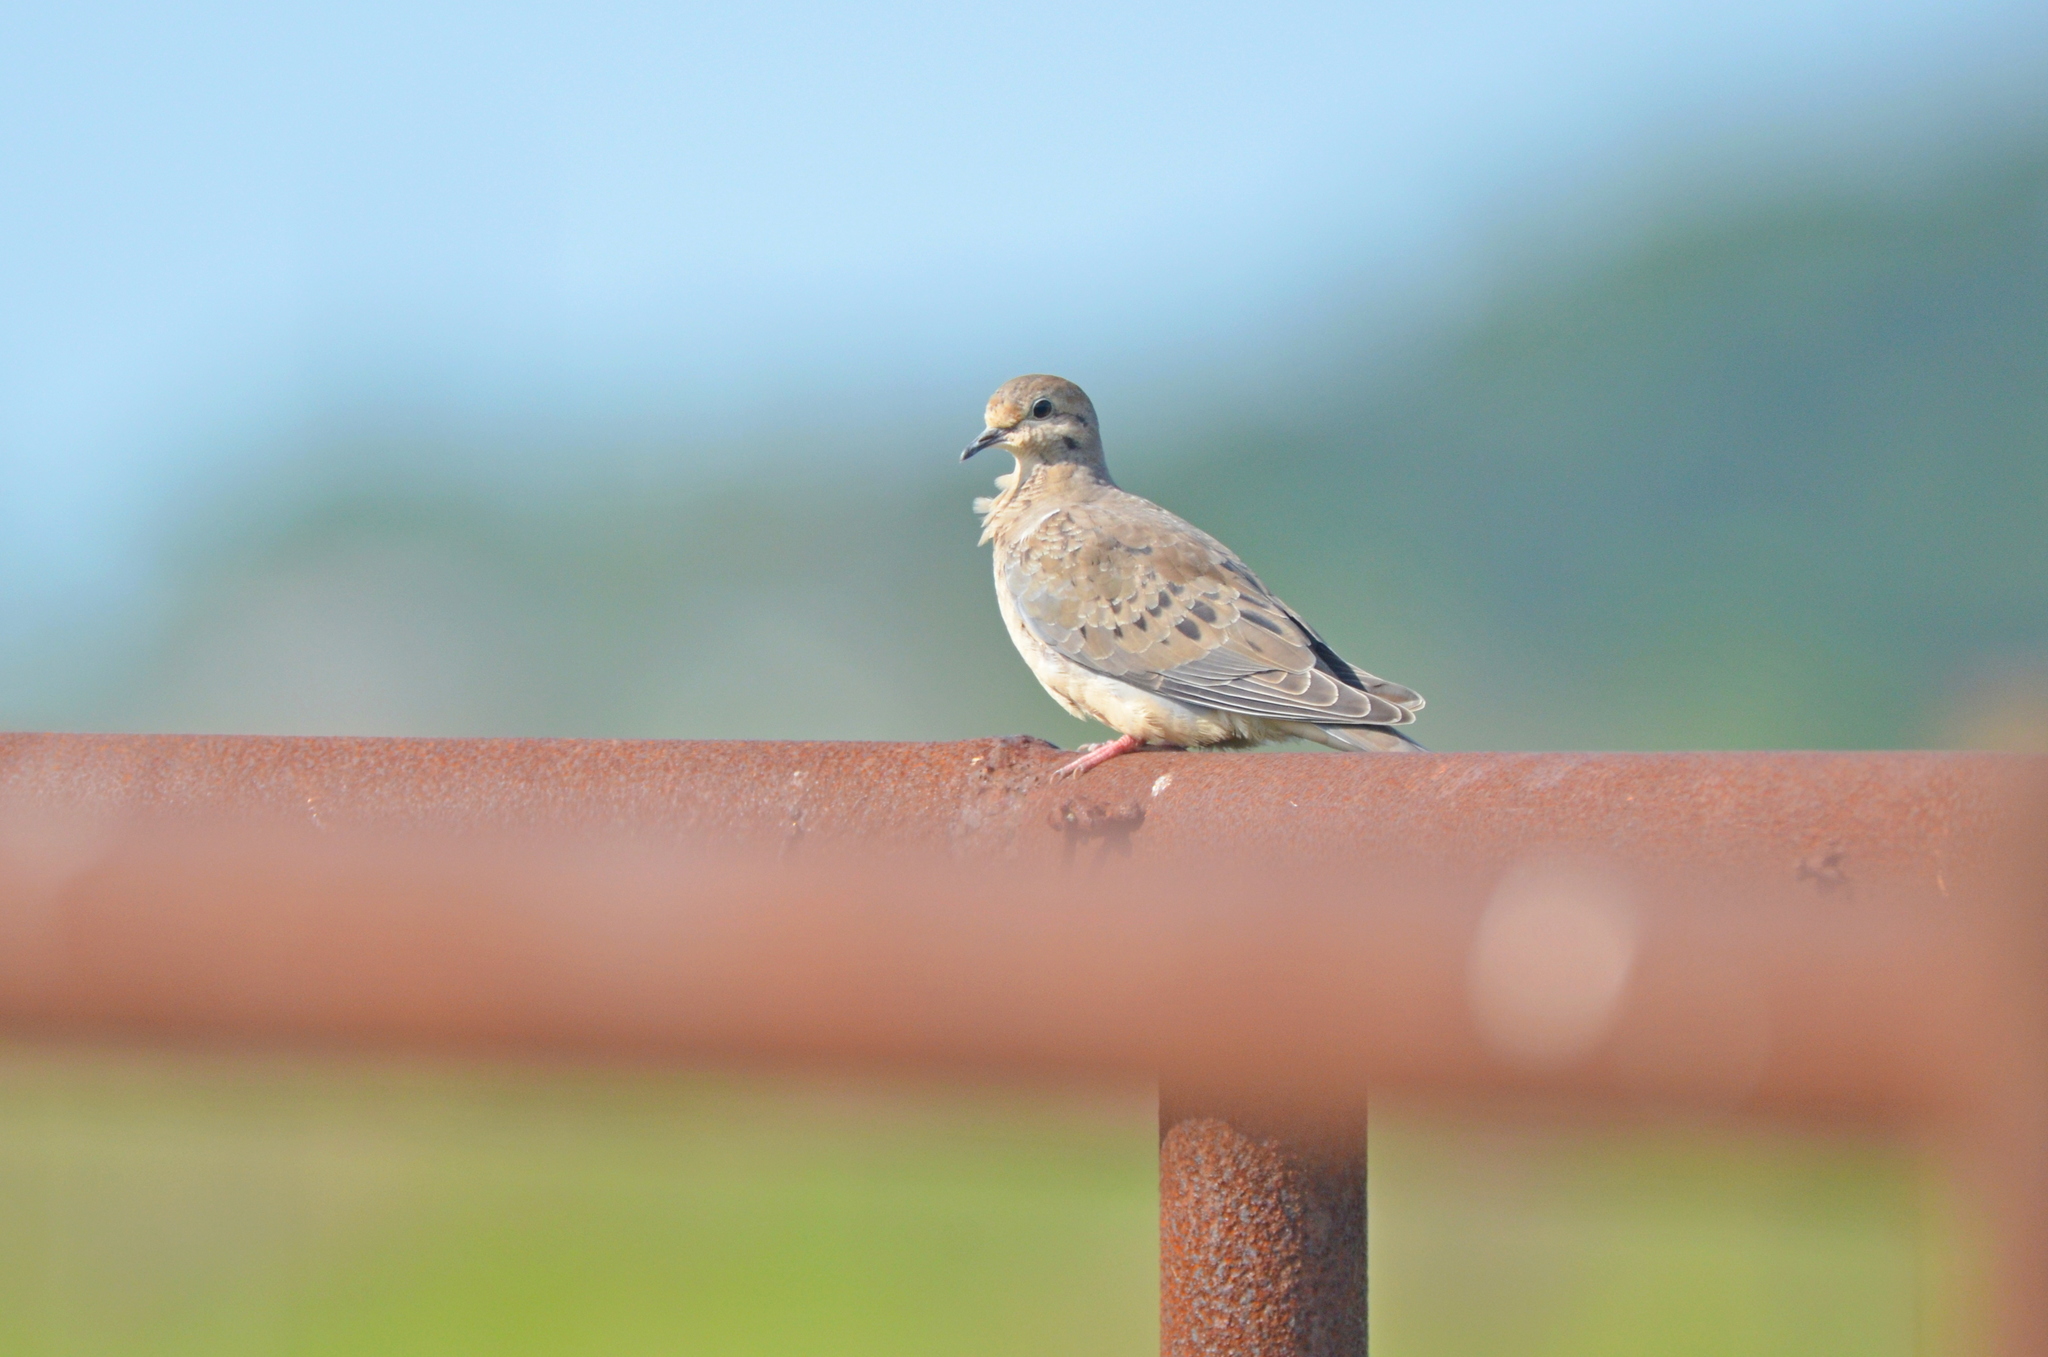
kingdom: Animalia
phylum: Chordata
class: Aves
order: Columbiformes
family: Columbidae
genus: Zenaida
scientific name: Zenaida macroura
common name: Mourning dove
